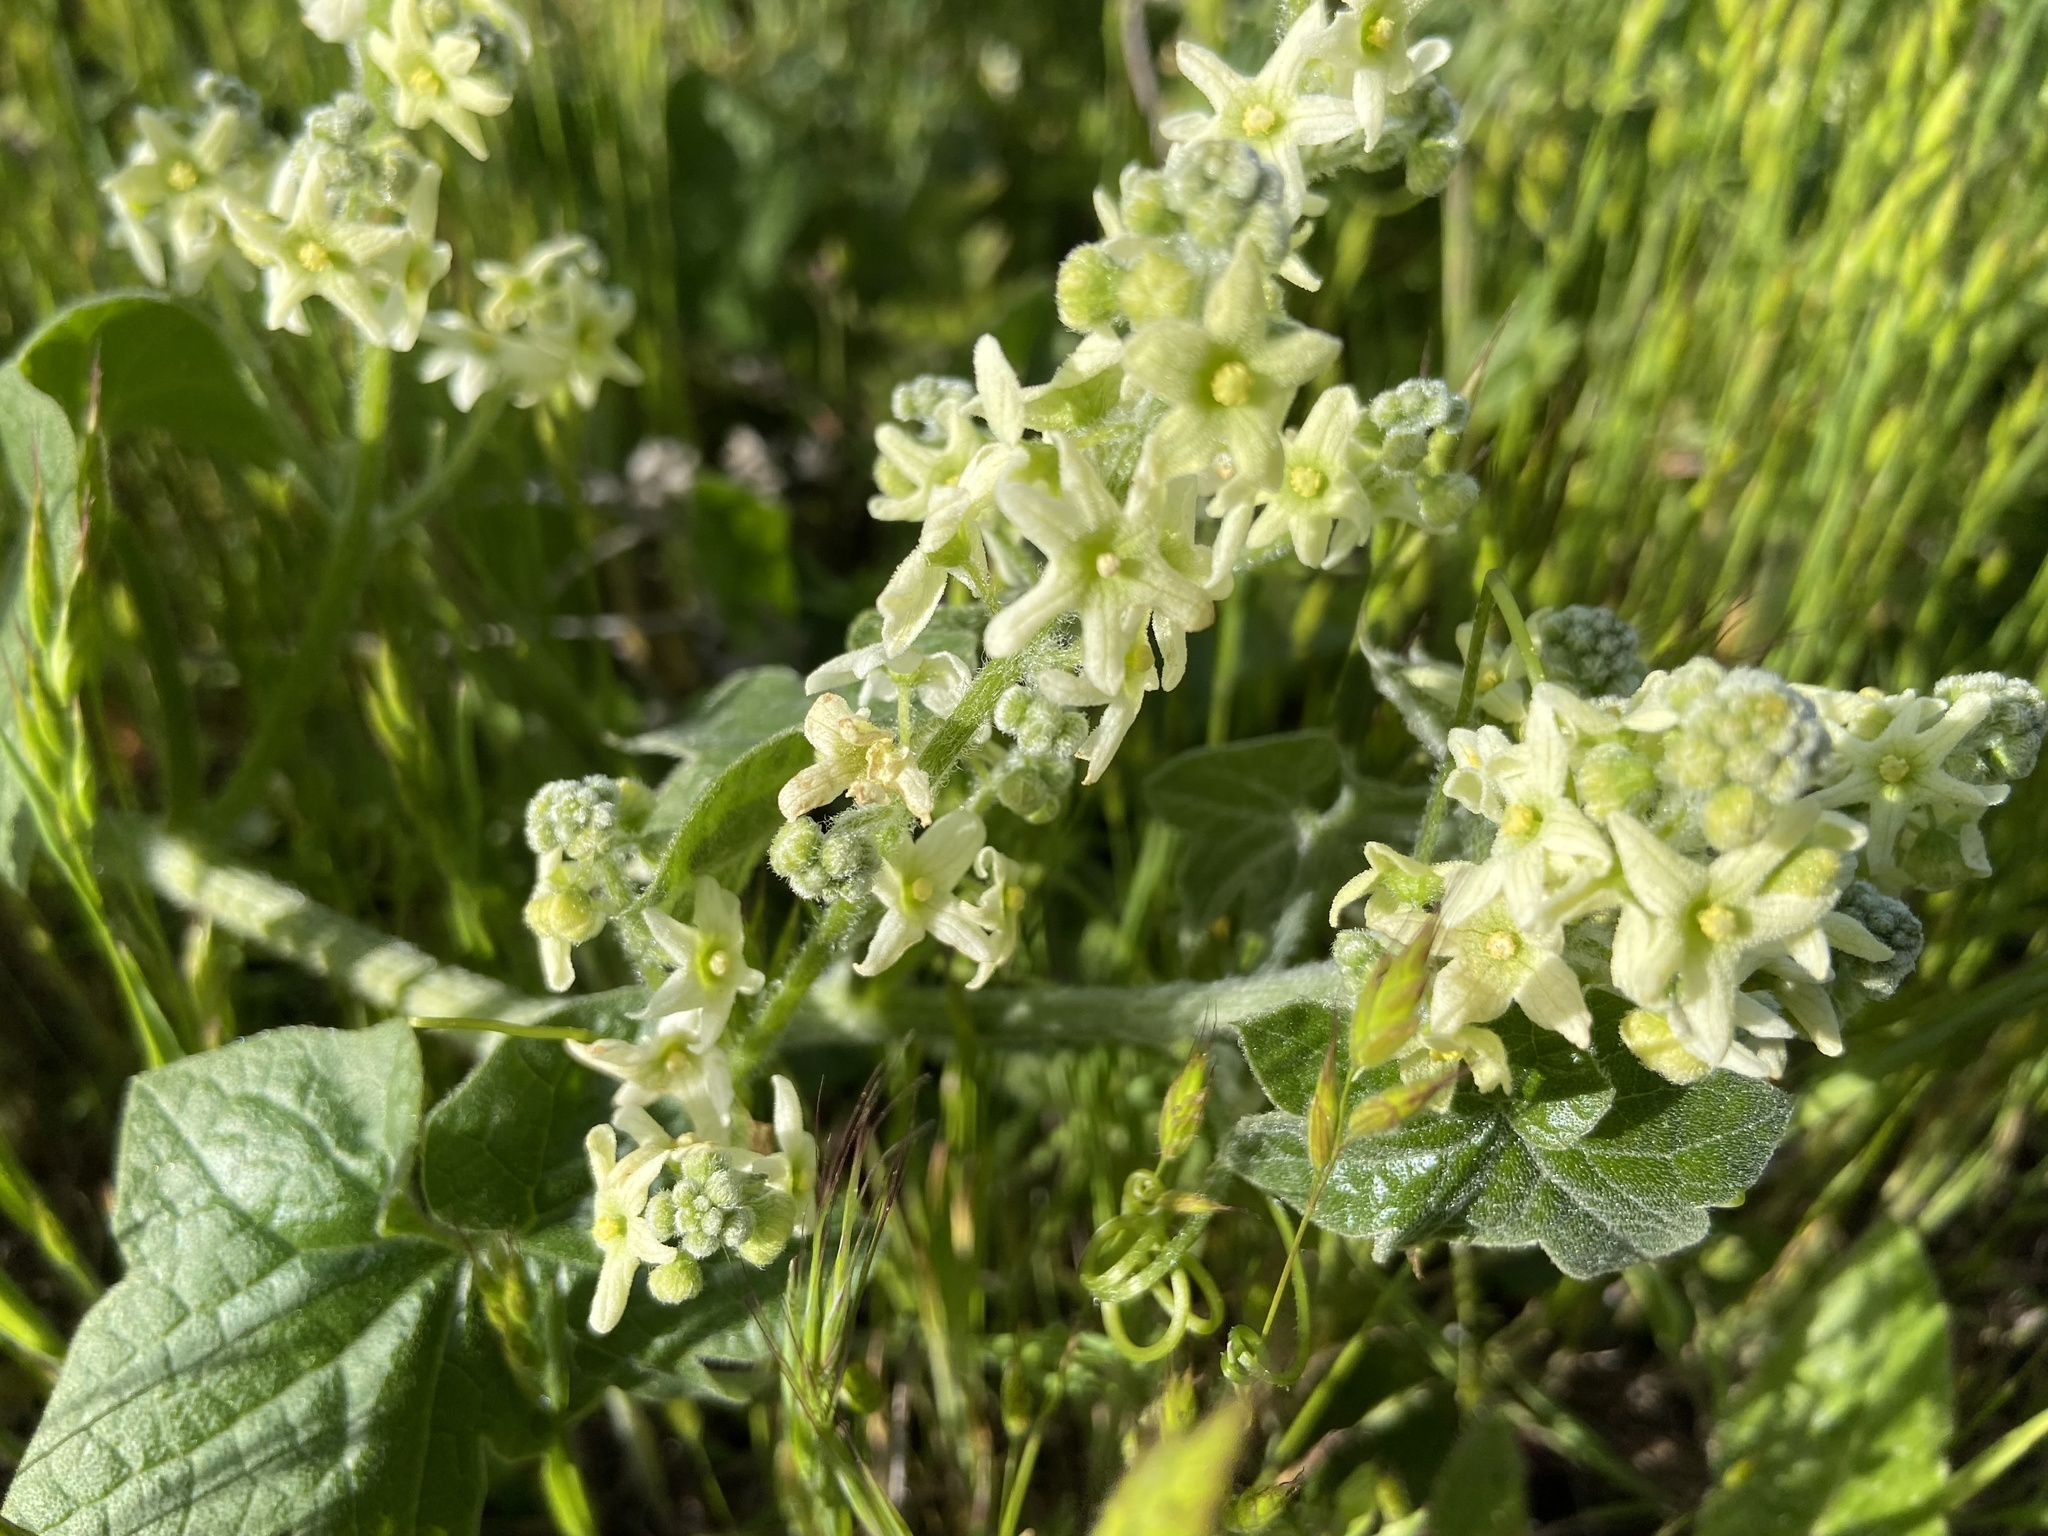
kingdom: Plantae
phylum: Tracheophyta
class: Magnoliopsida
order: Cucurbitales
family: Cucurbitaceae
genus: Marah
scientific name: Marah fabacea
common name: California manroot
